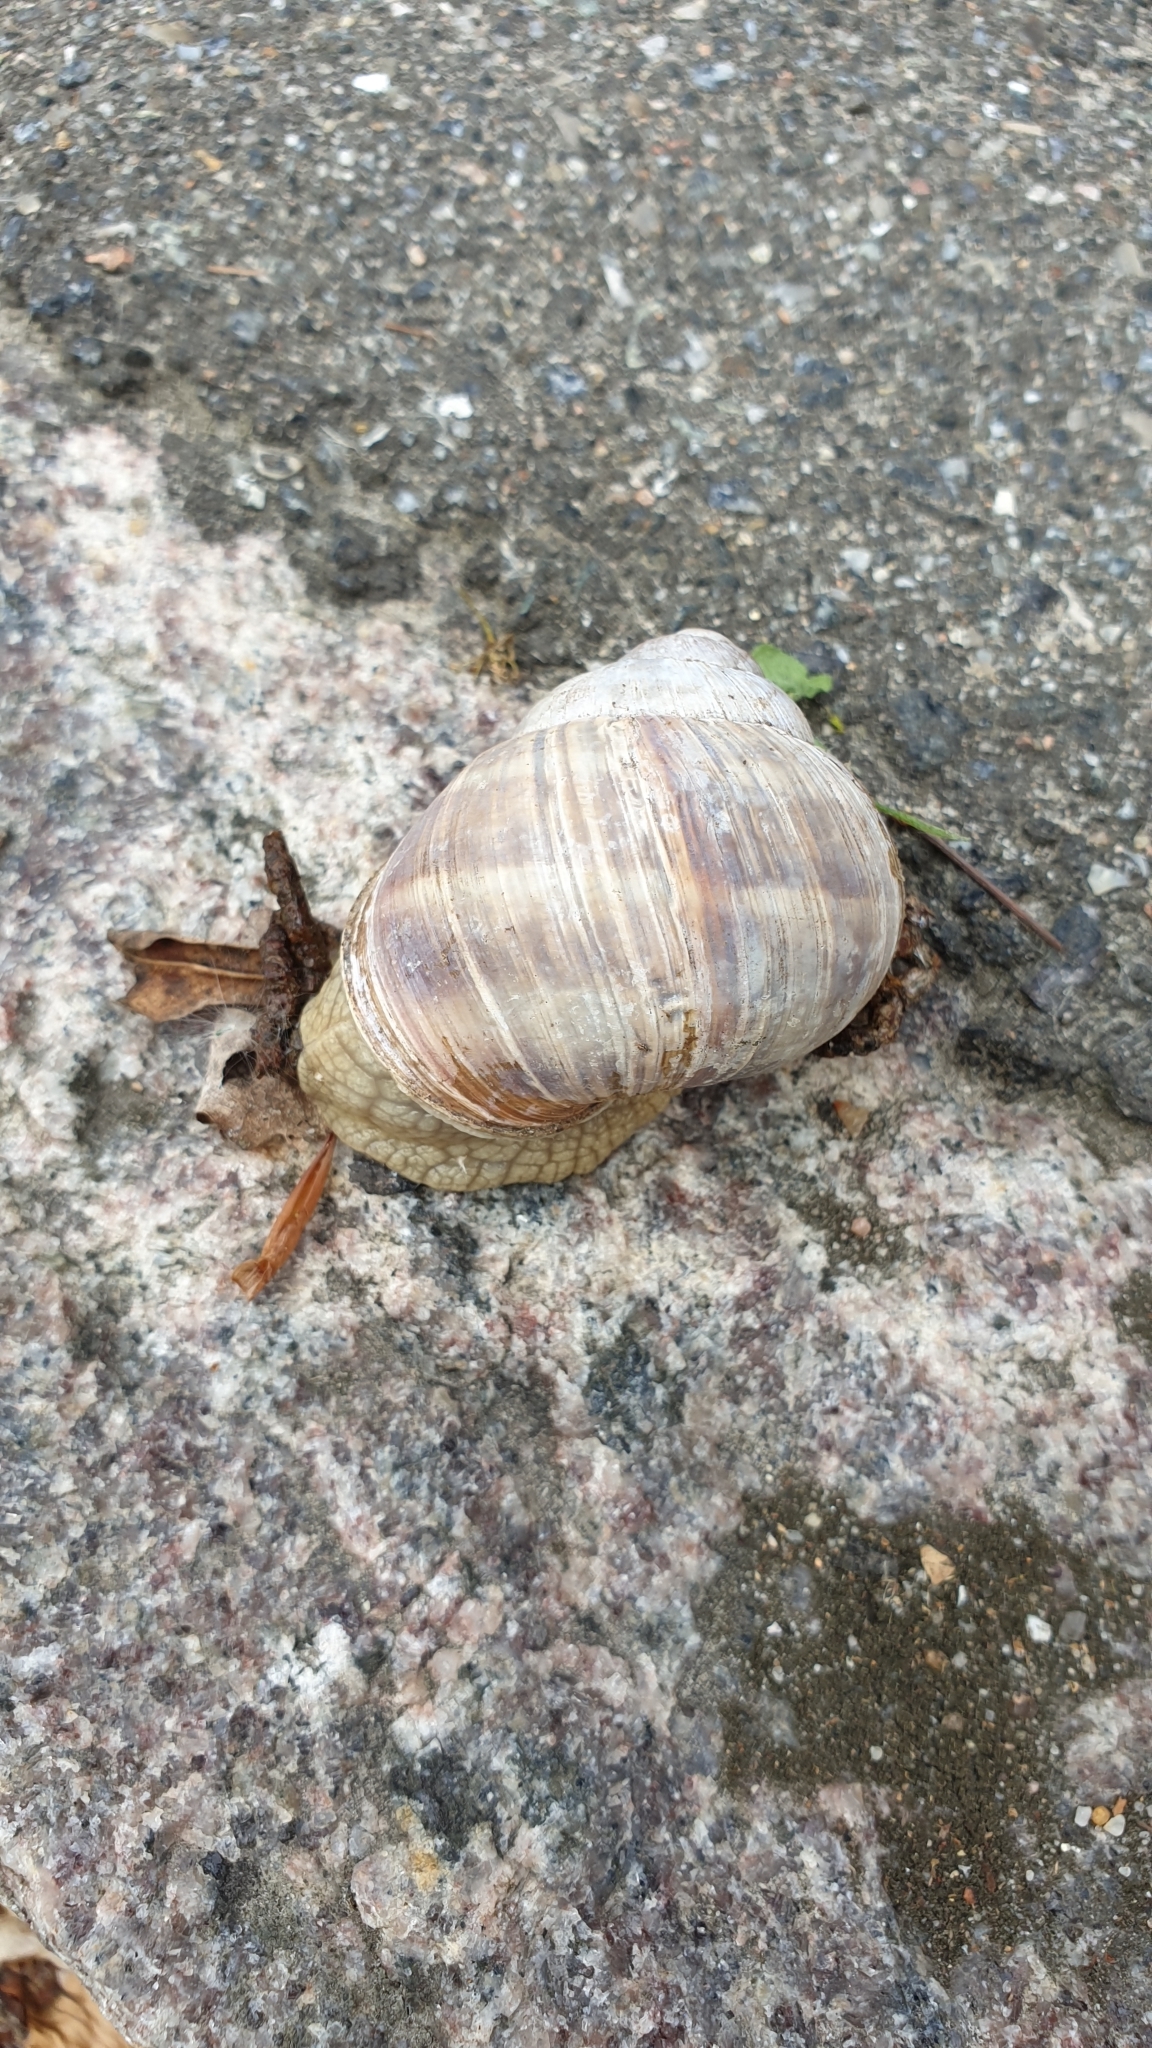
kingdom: Animalia
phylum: Mollusca
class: Gastropoda
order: Stylommatophora
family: Helicidae
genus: Helix
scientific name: Helix pomatia
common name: Roman snail
